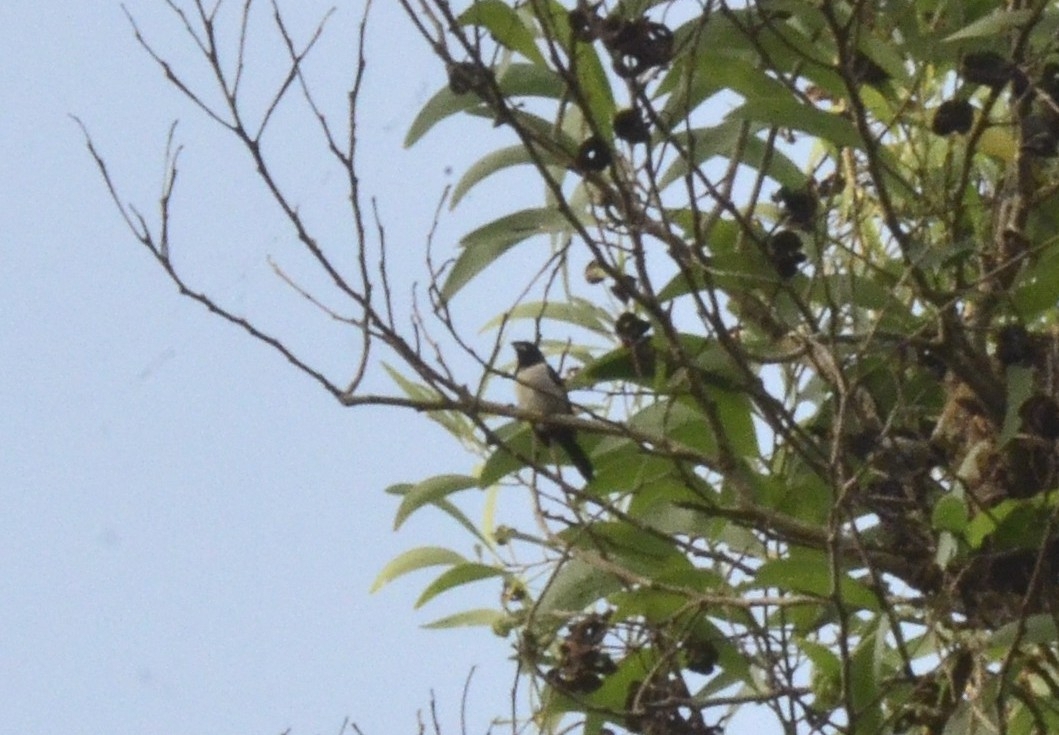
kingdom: Animalia
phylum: Chordata
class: Aves
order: Passeriformes
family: Estrildidae
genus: Lonchura
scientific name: Lonchura striata
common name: White-rumped munia
